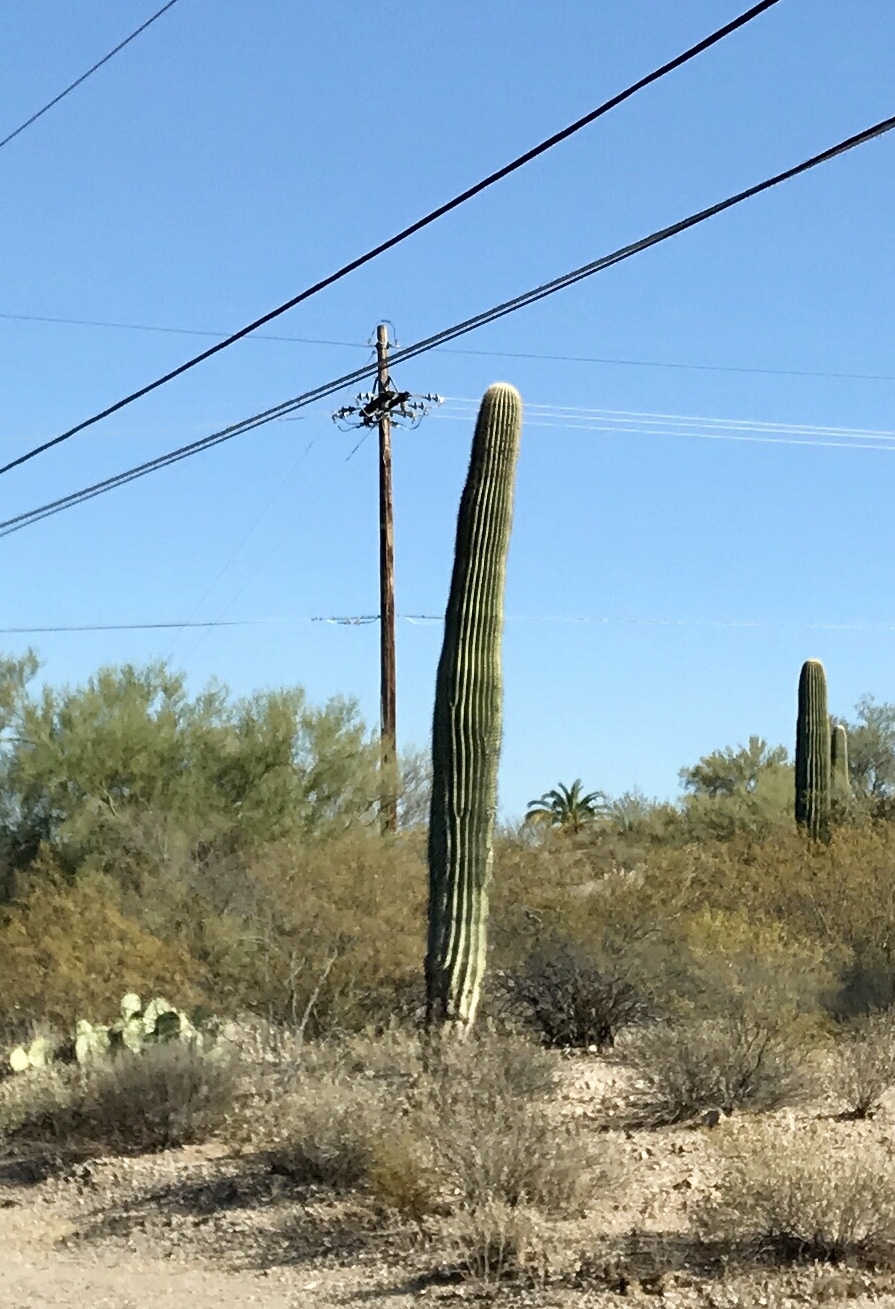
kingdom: Plantae
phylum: Tracheophyta
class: Magnoliopsida
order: Caryophyllales
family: Cactaceae
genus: Carnegiea
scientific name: Carnegiea gigantea
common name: Saguaro
